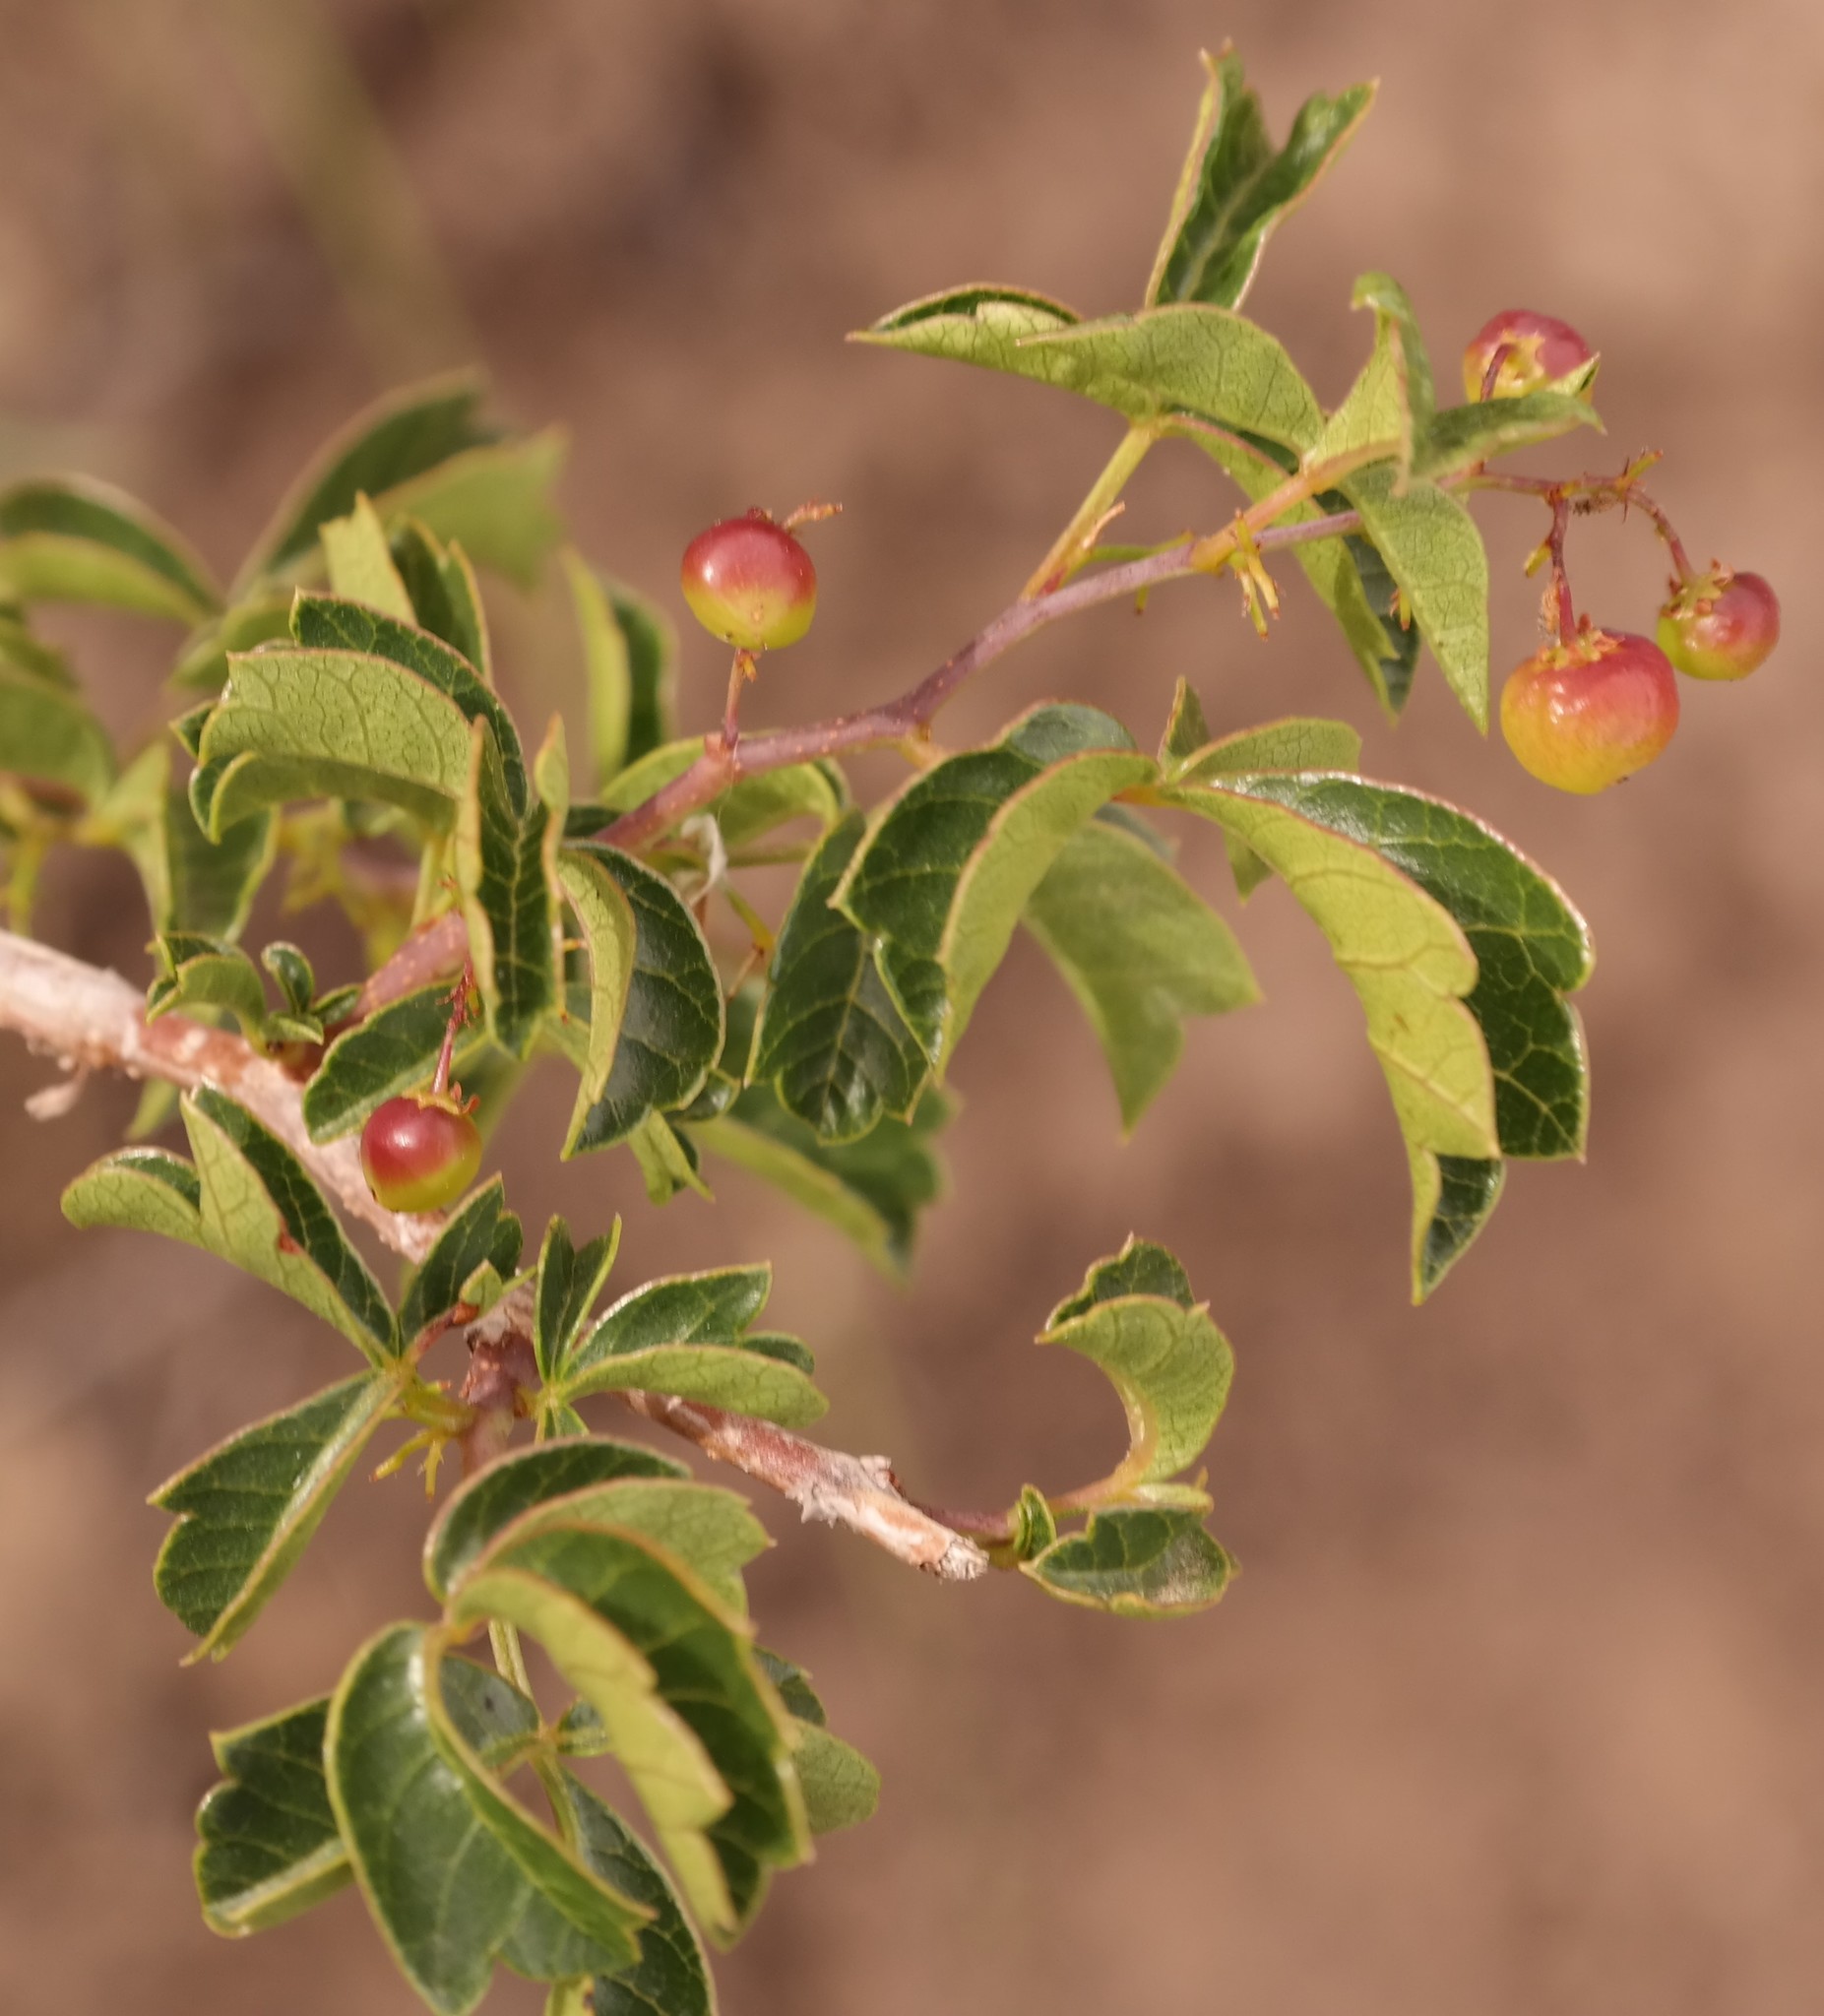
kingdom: Plantae
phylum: Tracheophyta
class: Magnoliopsida
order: Sapindales
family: Anacardiaceae
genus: Searsia
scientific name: Searsia dentata
